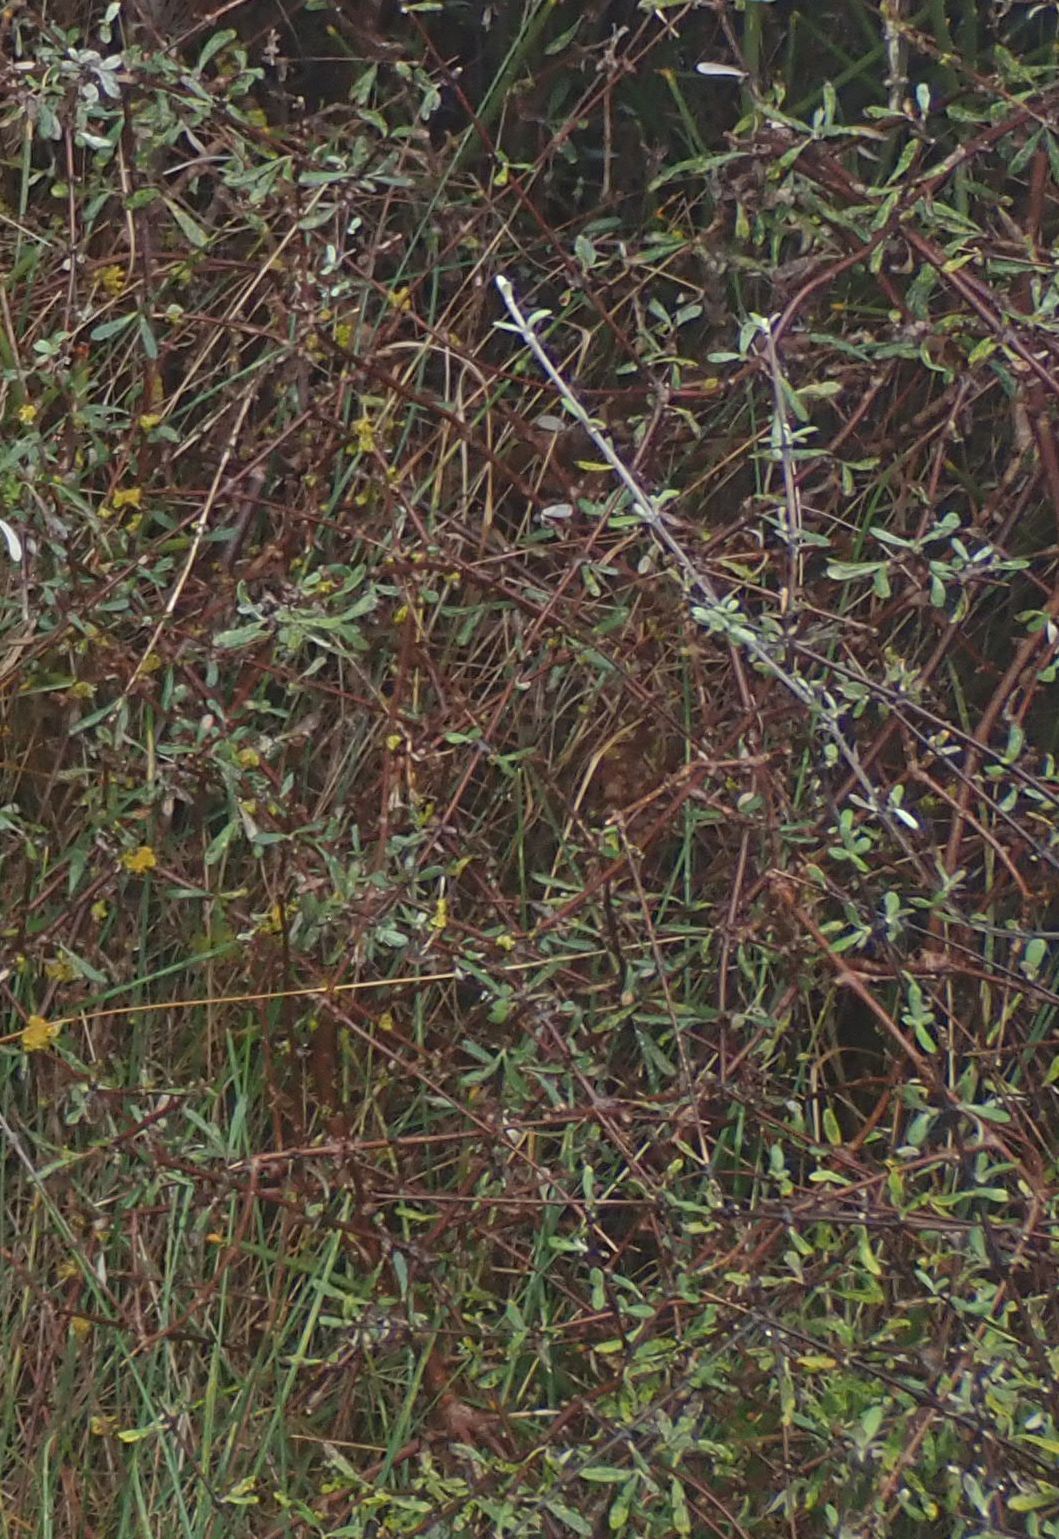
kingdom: Plantae
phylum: Tracheophyta
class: Magnoliopsida
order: Asterales
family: Asteraceae
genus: Olearia
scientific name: Olearia odorata
